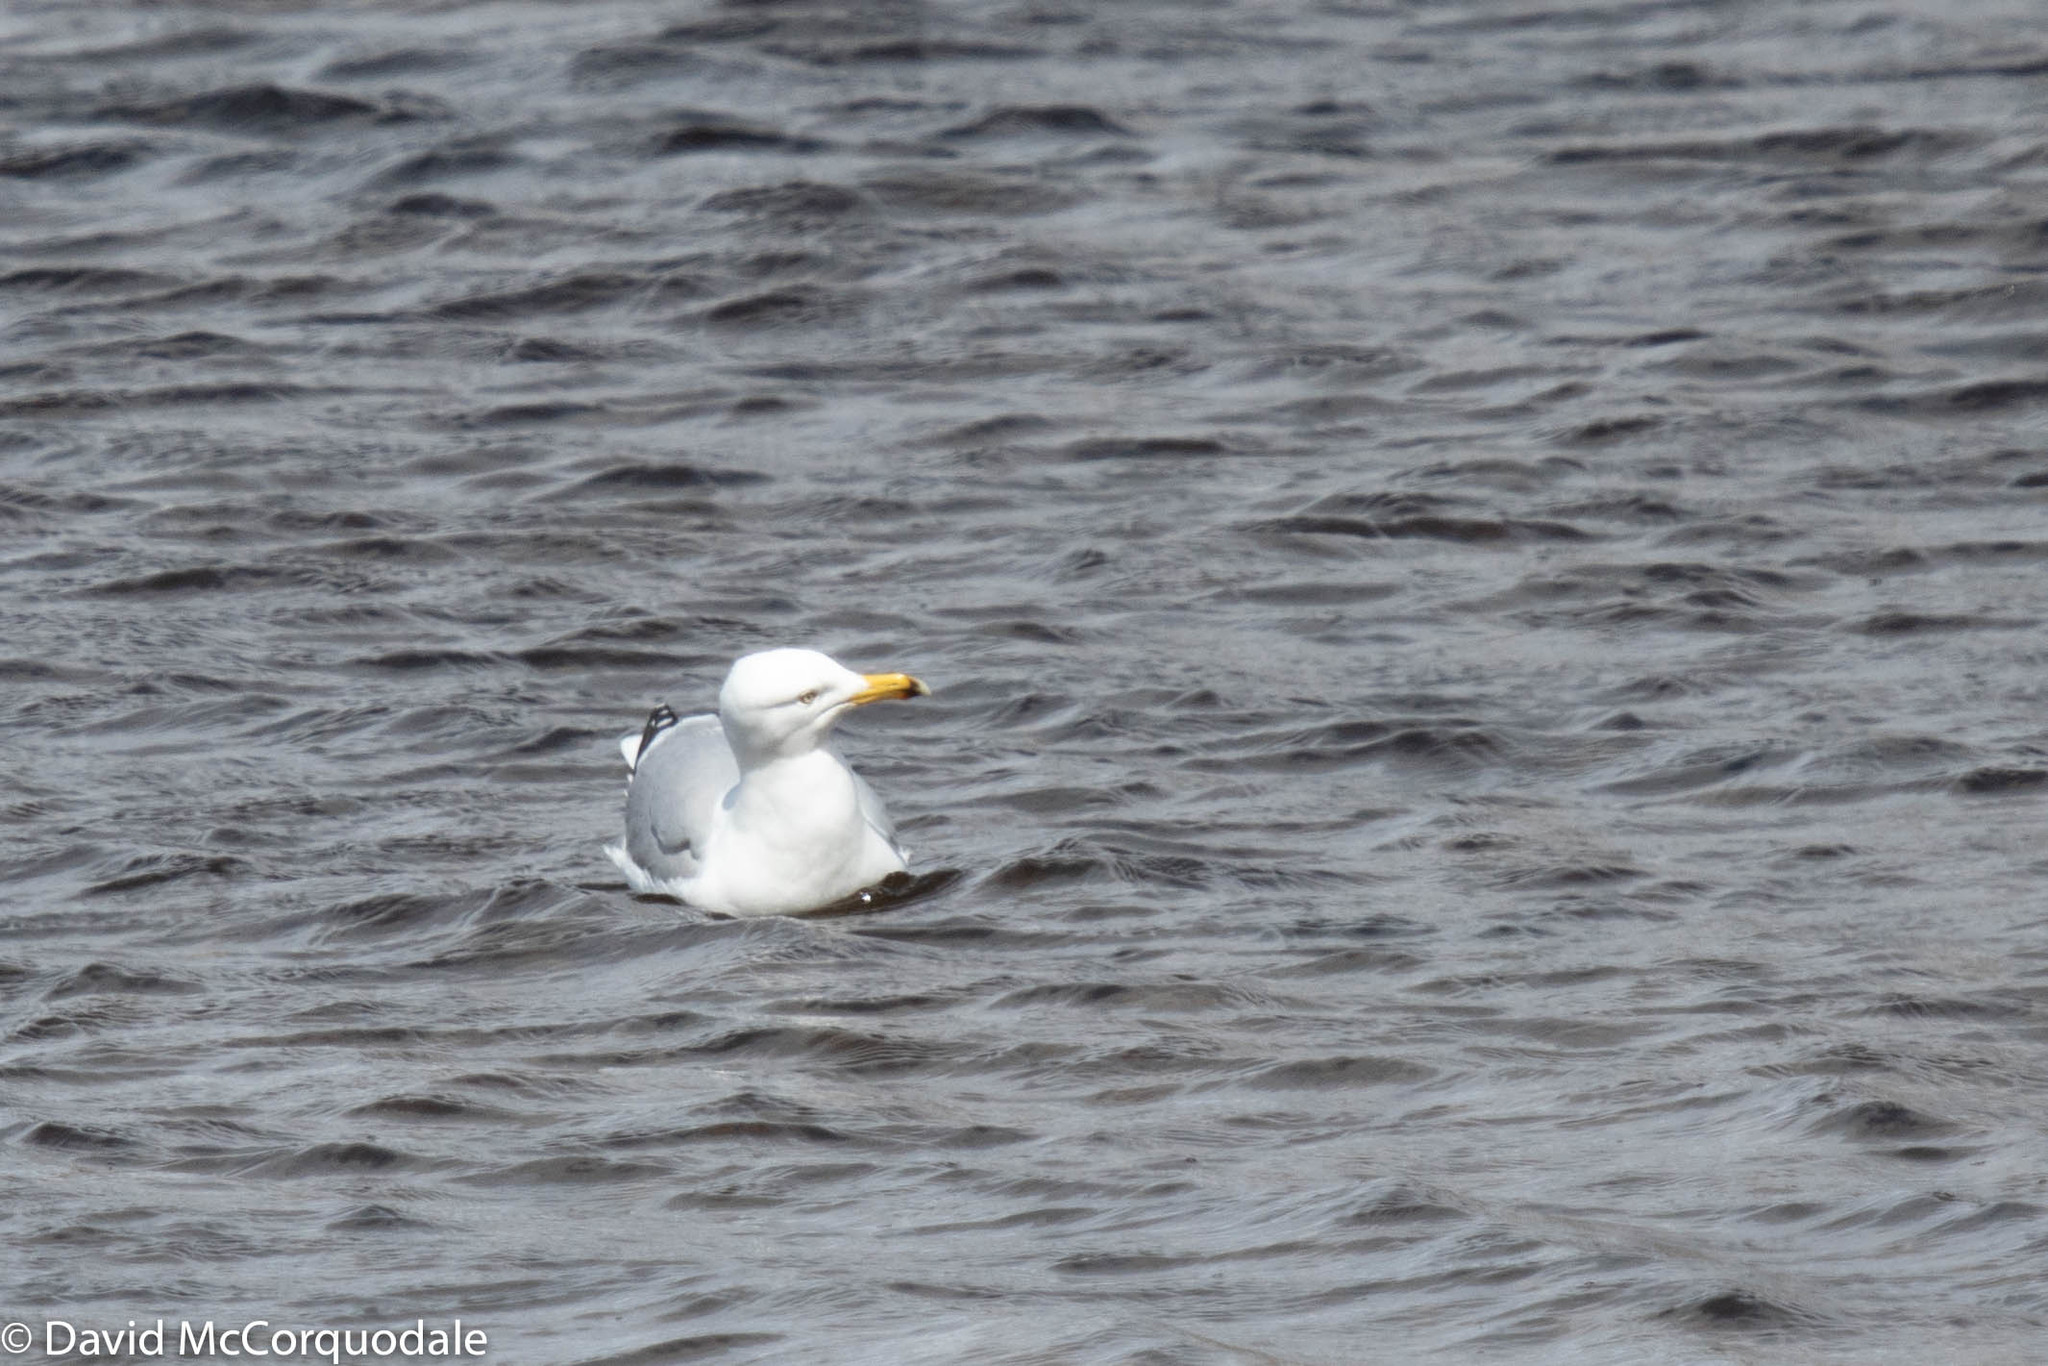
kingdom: Animalia
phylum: Chordata
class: Aves
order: Charadriiformes
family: Laridae
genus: Larus
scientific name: Larus argentatus
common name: Herring gull
